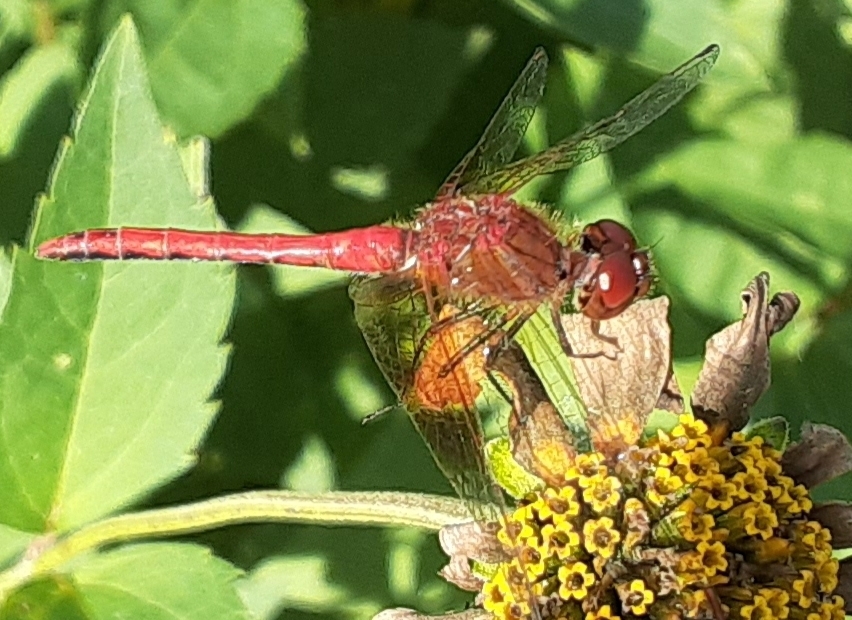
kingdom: Animalia
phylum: Arthropoda
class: Insecta
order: Odonata
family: Libellulidae
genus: Sympetrum
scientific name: Sympetrum semicinctum
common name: Band-winged meadowhawk
